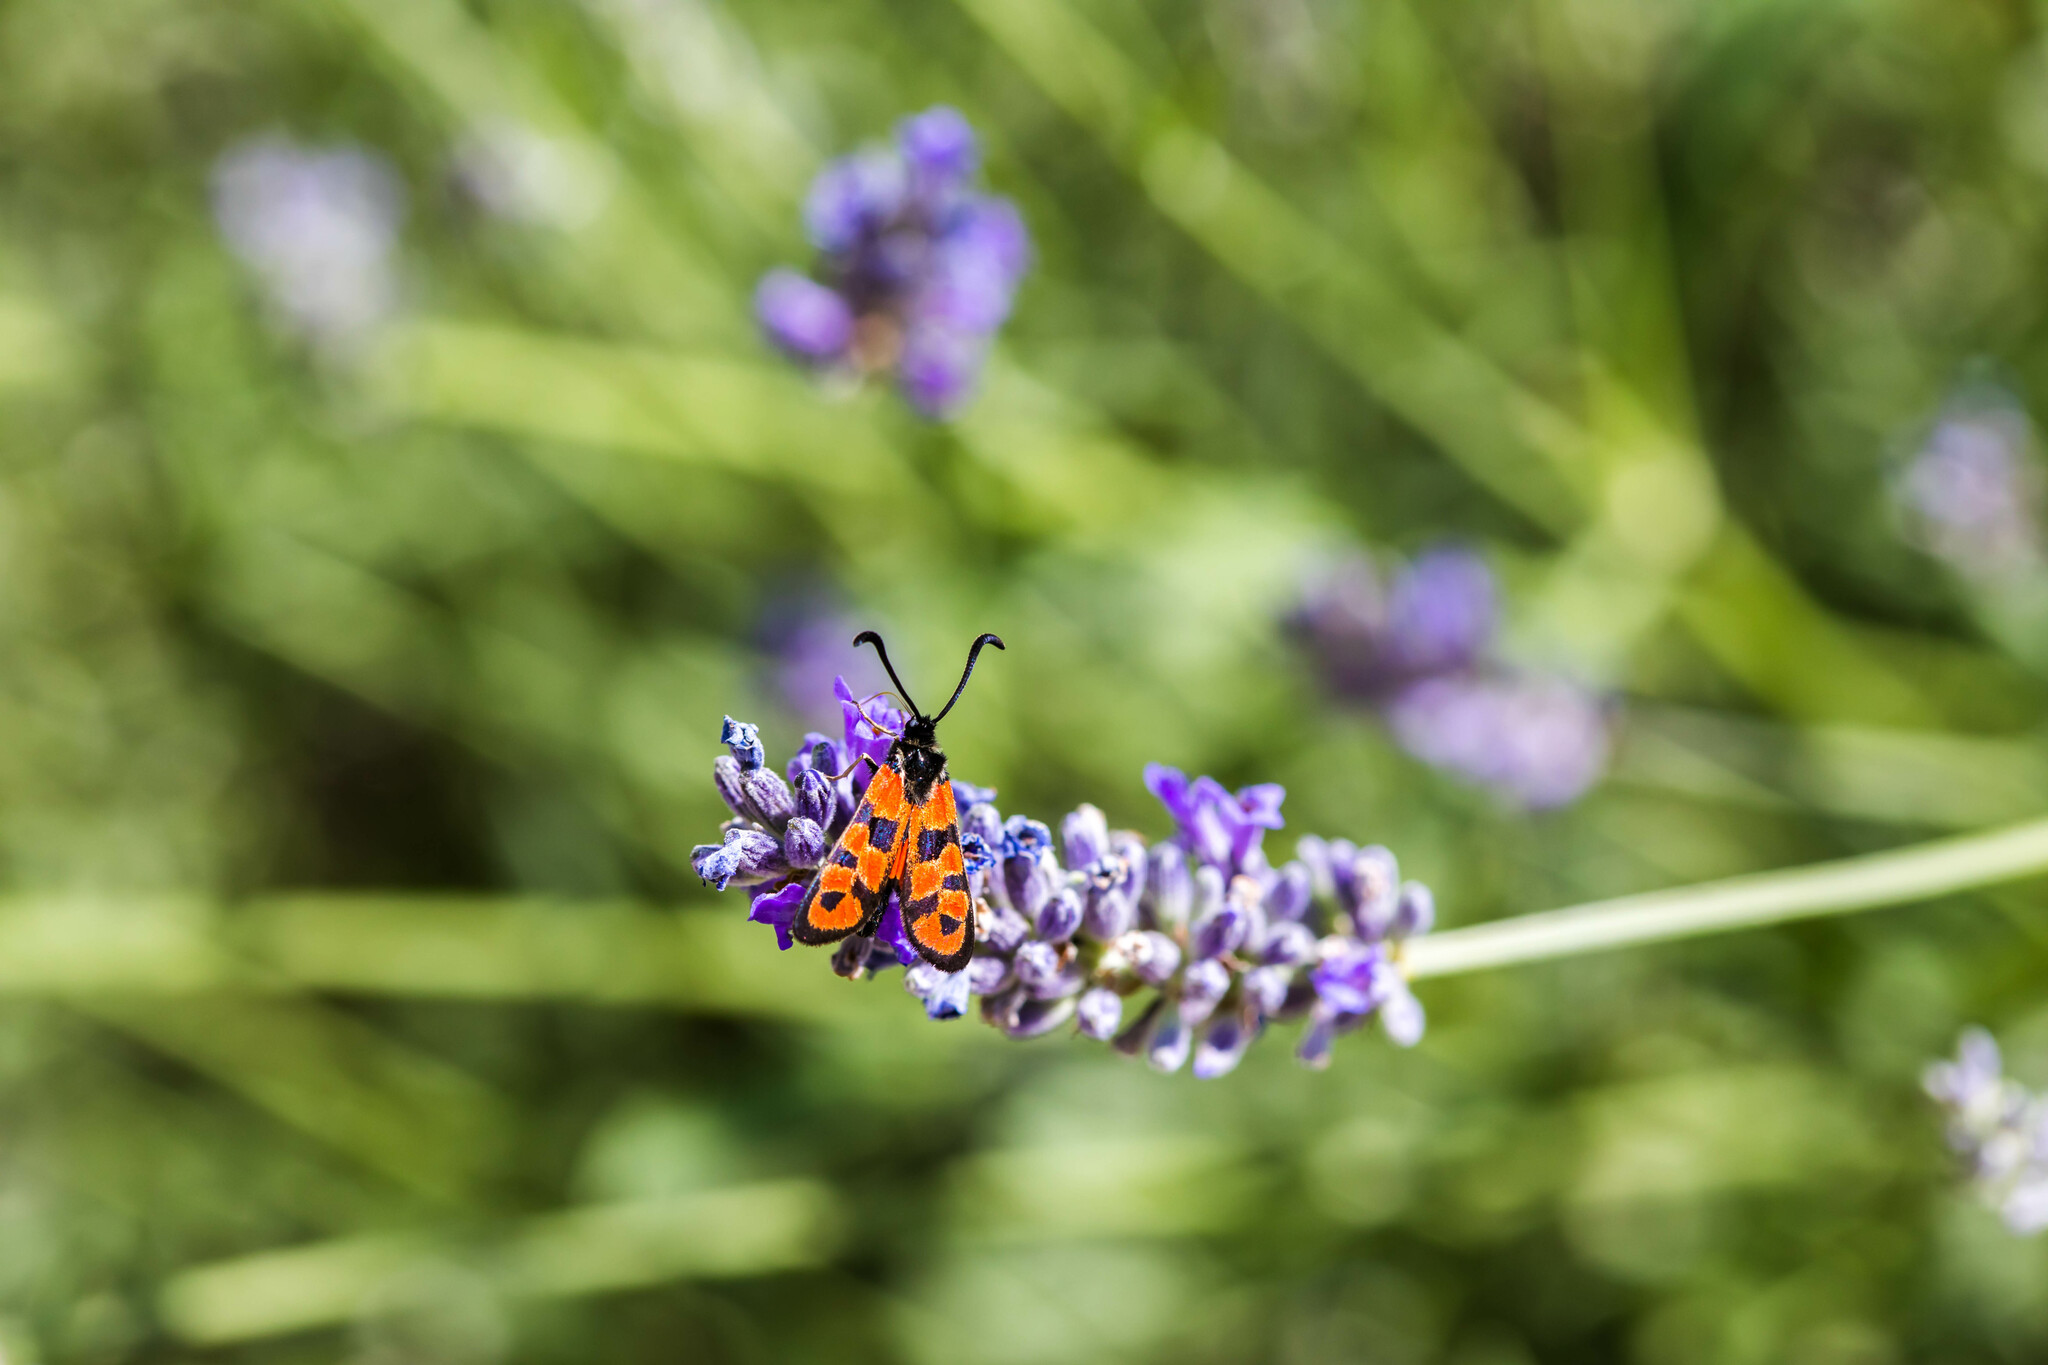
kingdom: Animalia
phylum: Arthropoda
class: Insecta
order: Lepidoptera
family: Zygaenidae
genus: Zygaena
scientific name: Zygaena fausta
